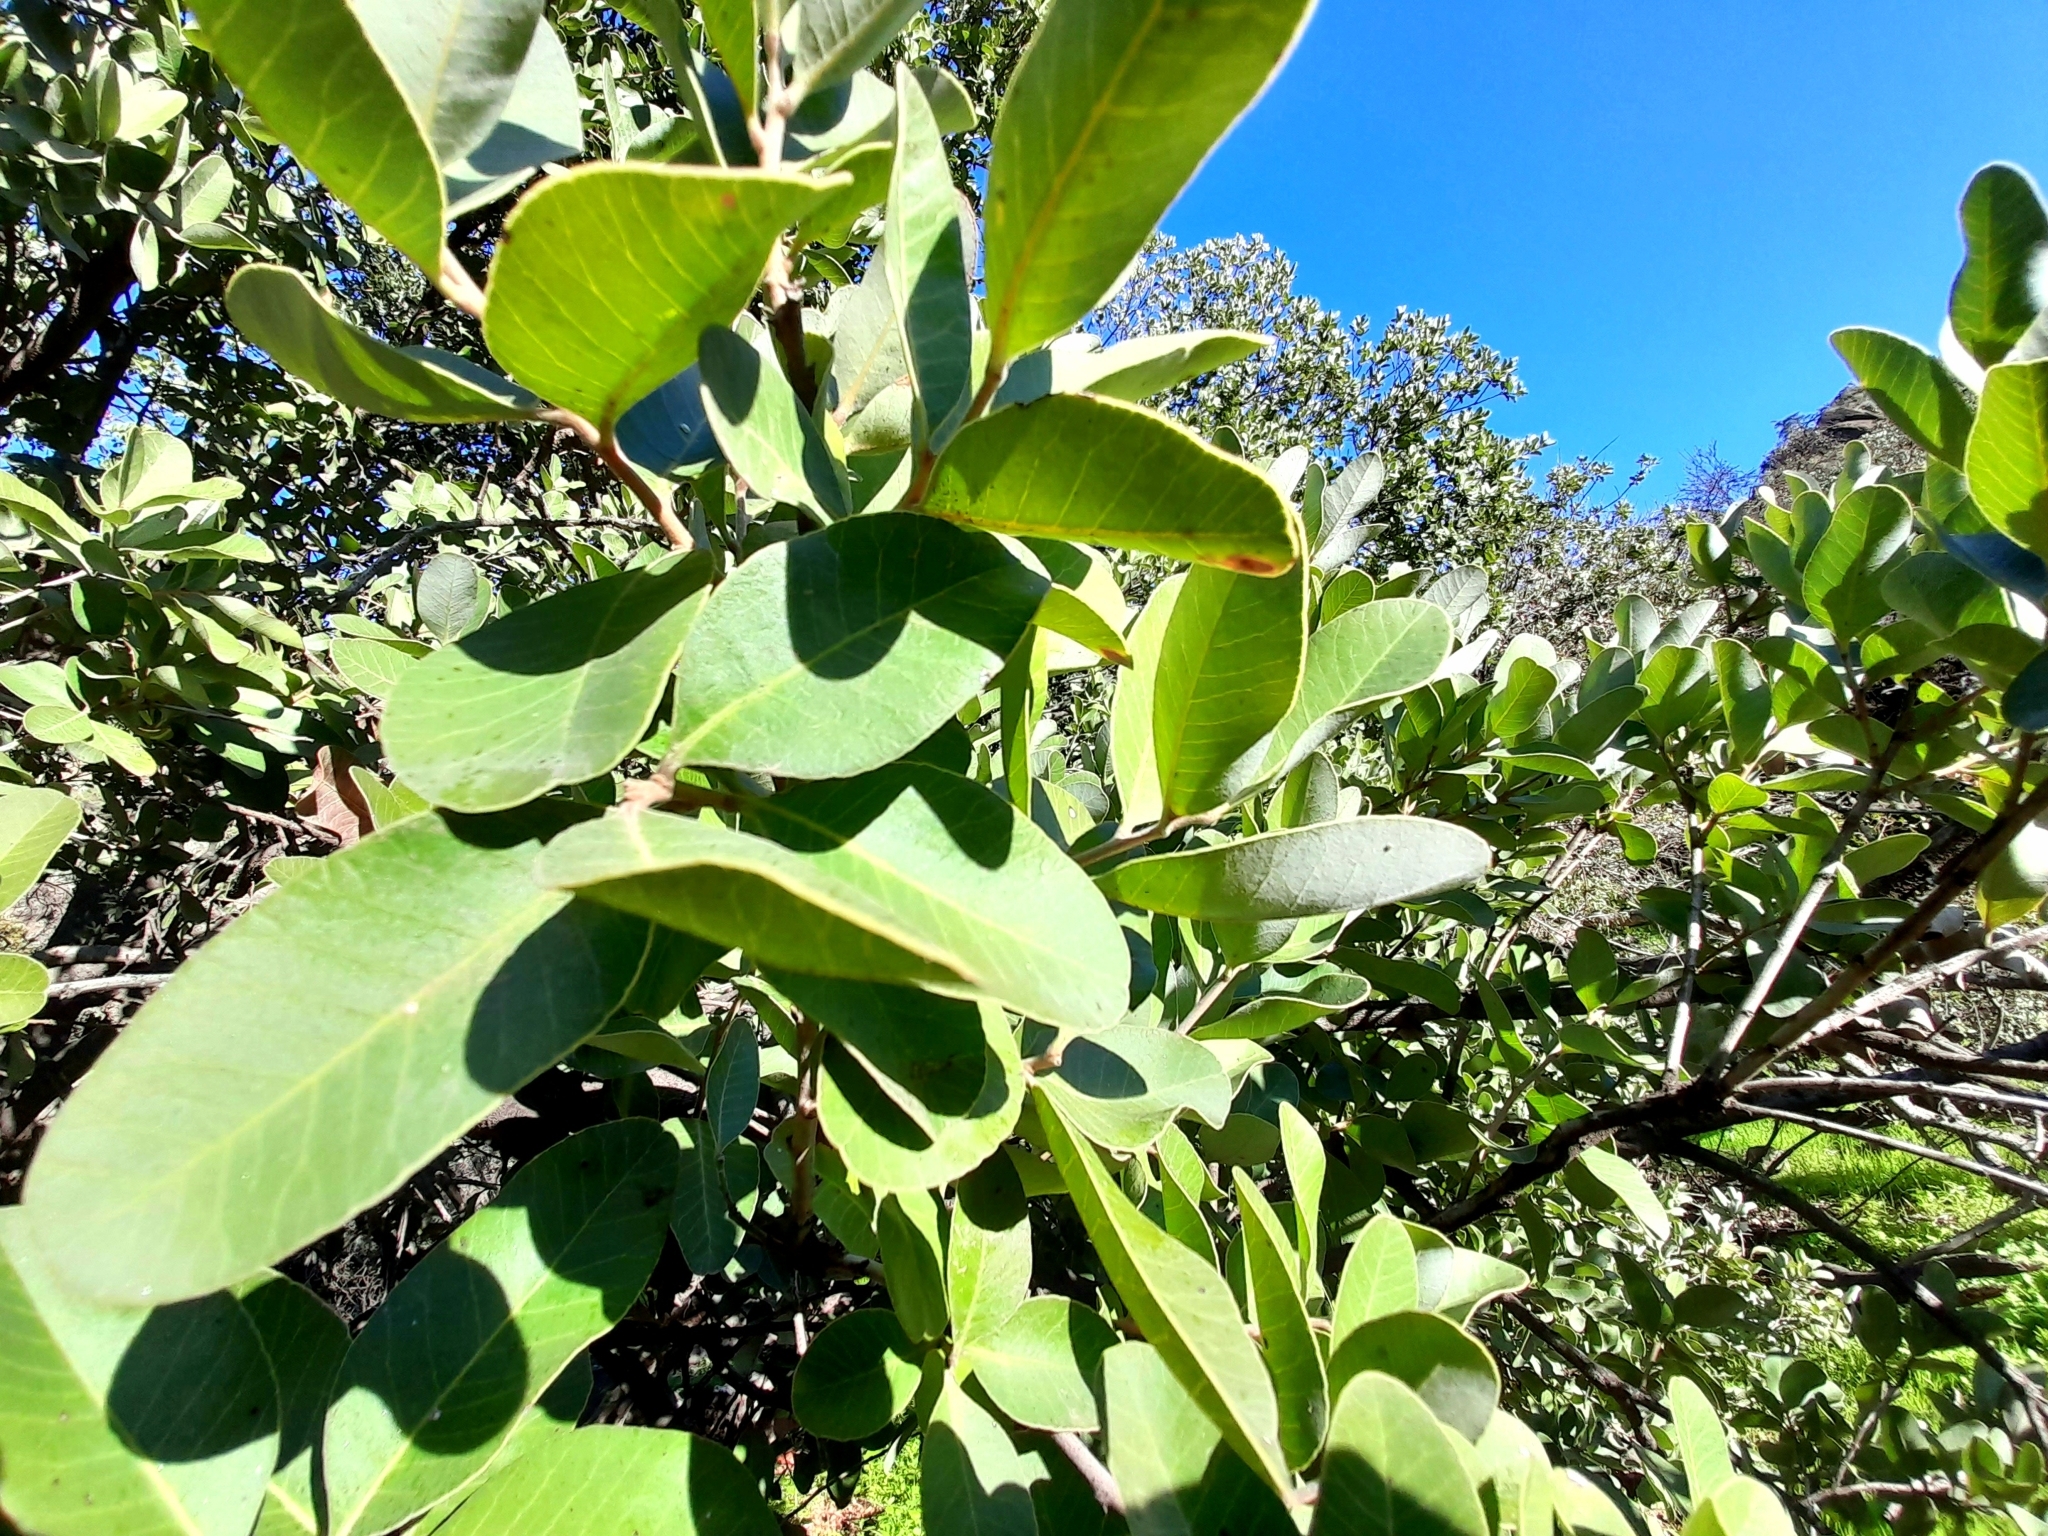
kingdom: Plantae
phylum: Tracheophyta
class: Magnoliopsida
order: Sapindales
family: Anacardiaceae
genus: Lithraea
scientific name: Lithraea caustica
